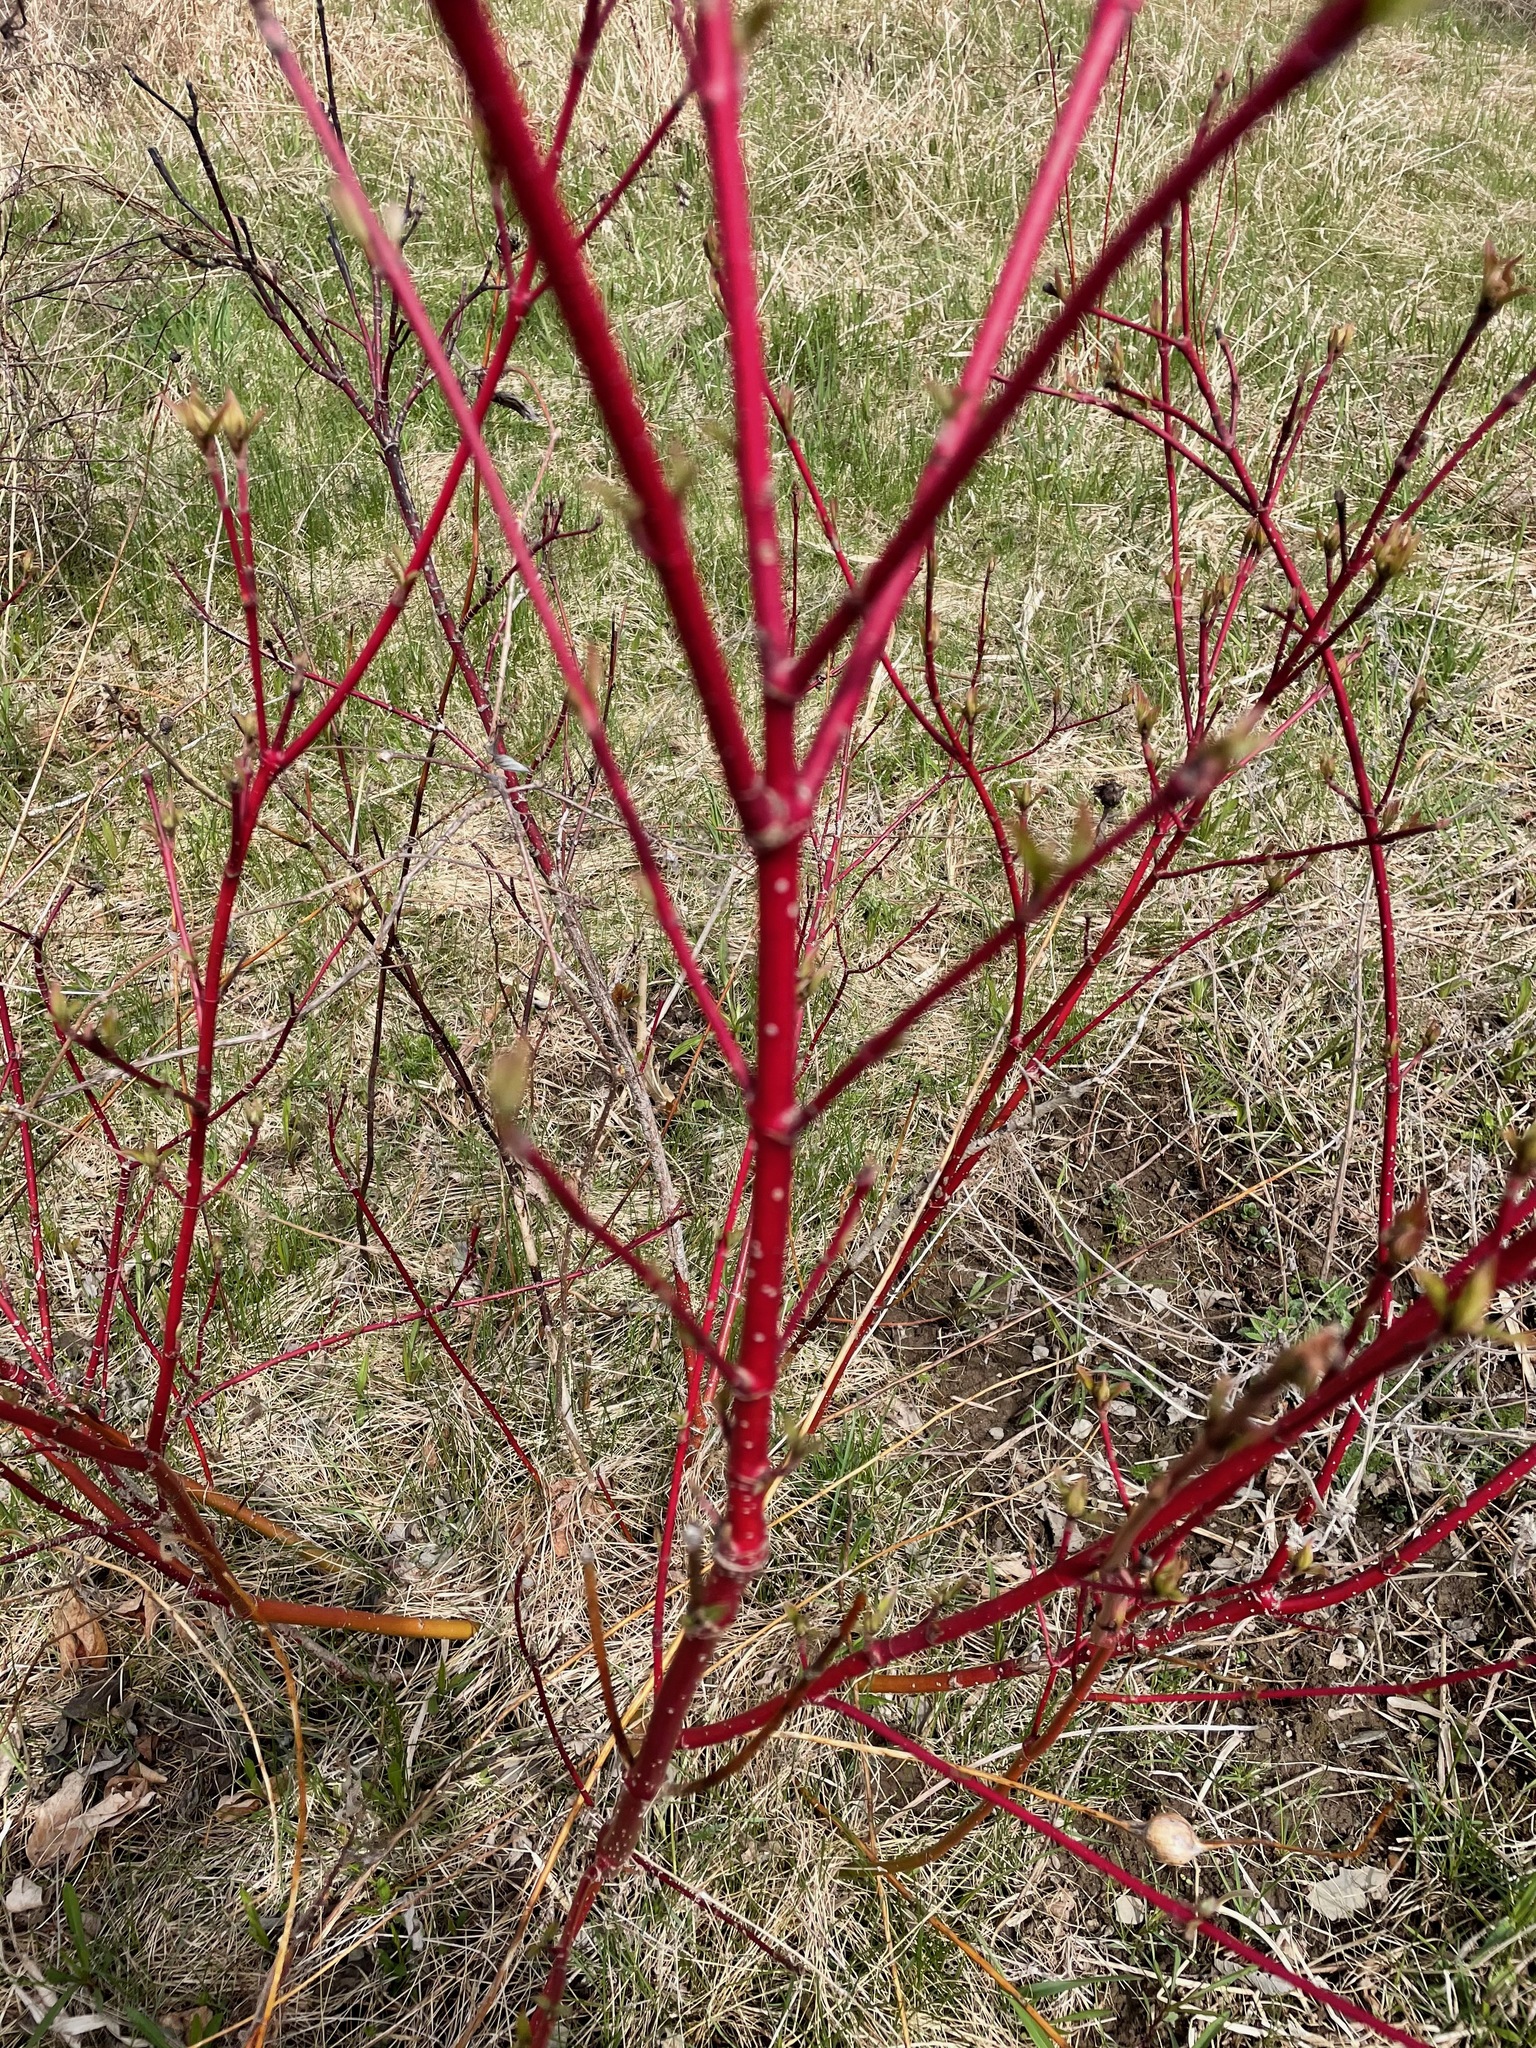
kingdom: Plantae
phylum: Tracheophyta
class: Magnoliopsida
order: Cornales
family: Cornaceae
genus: Cornus
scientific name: Cornus sericea
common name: Red-osier dogwood
